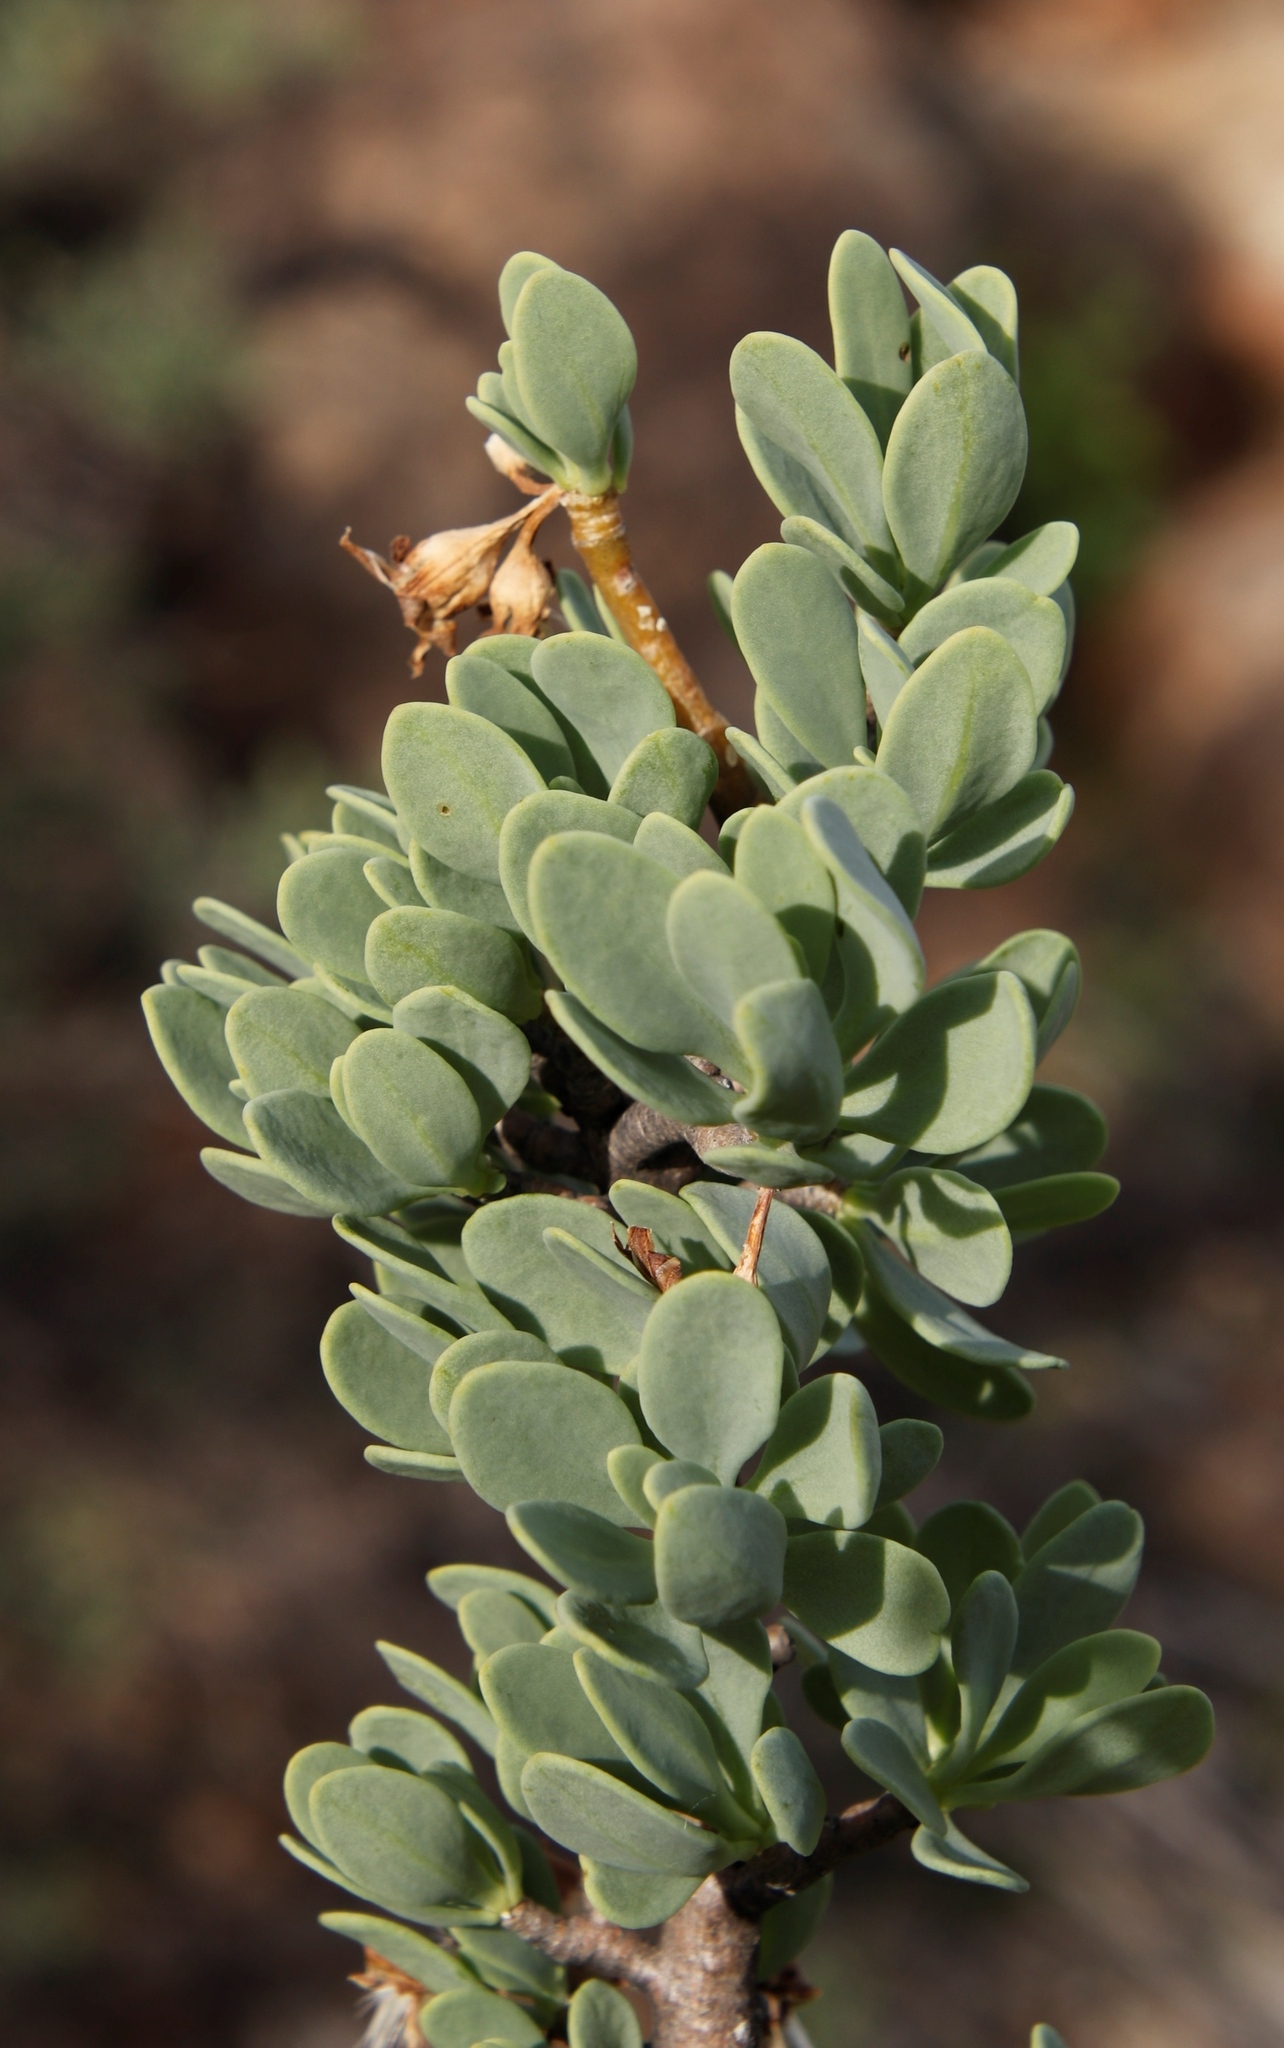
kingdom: Plantae
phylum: Tracheophyta
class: Magnoliopsida
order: Asterales
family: Asteraceae
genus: Othonna
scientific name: Othonna cerarioides
